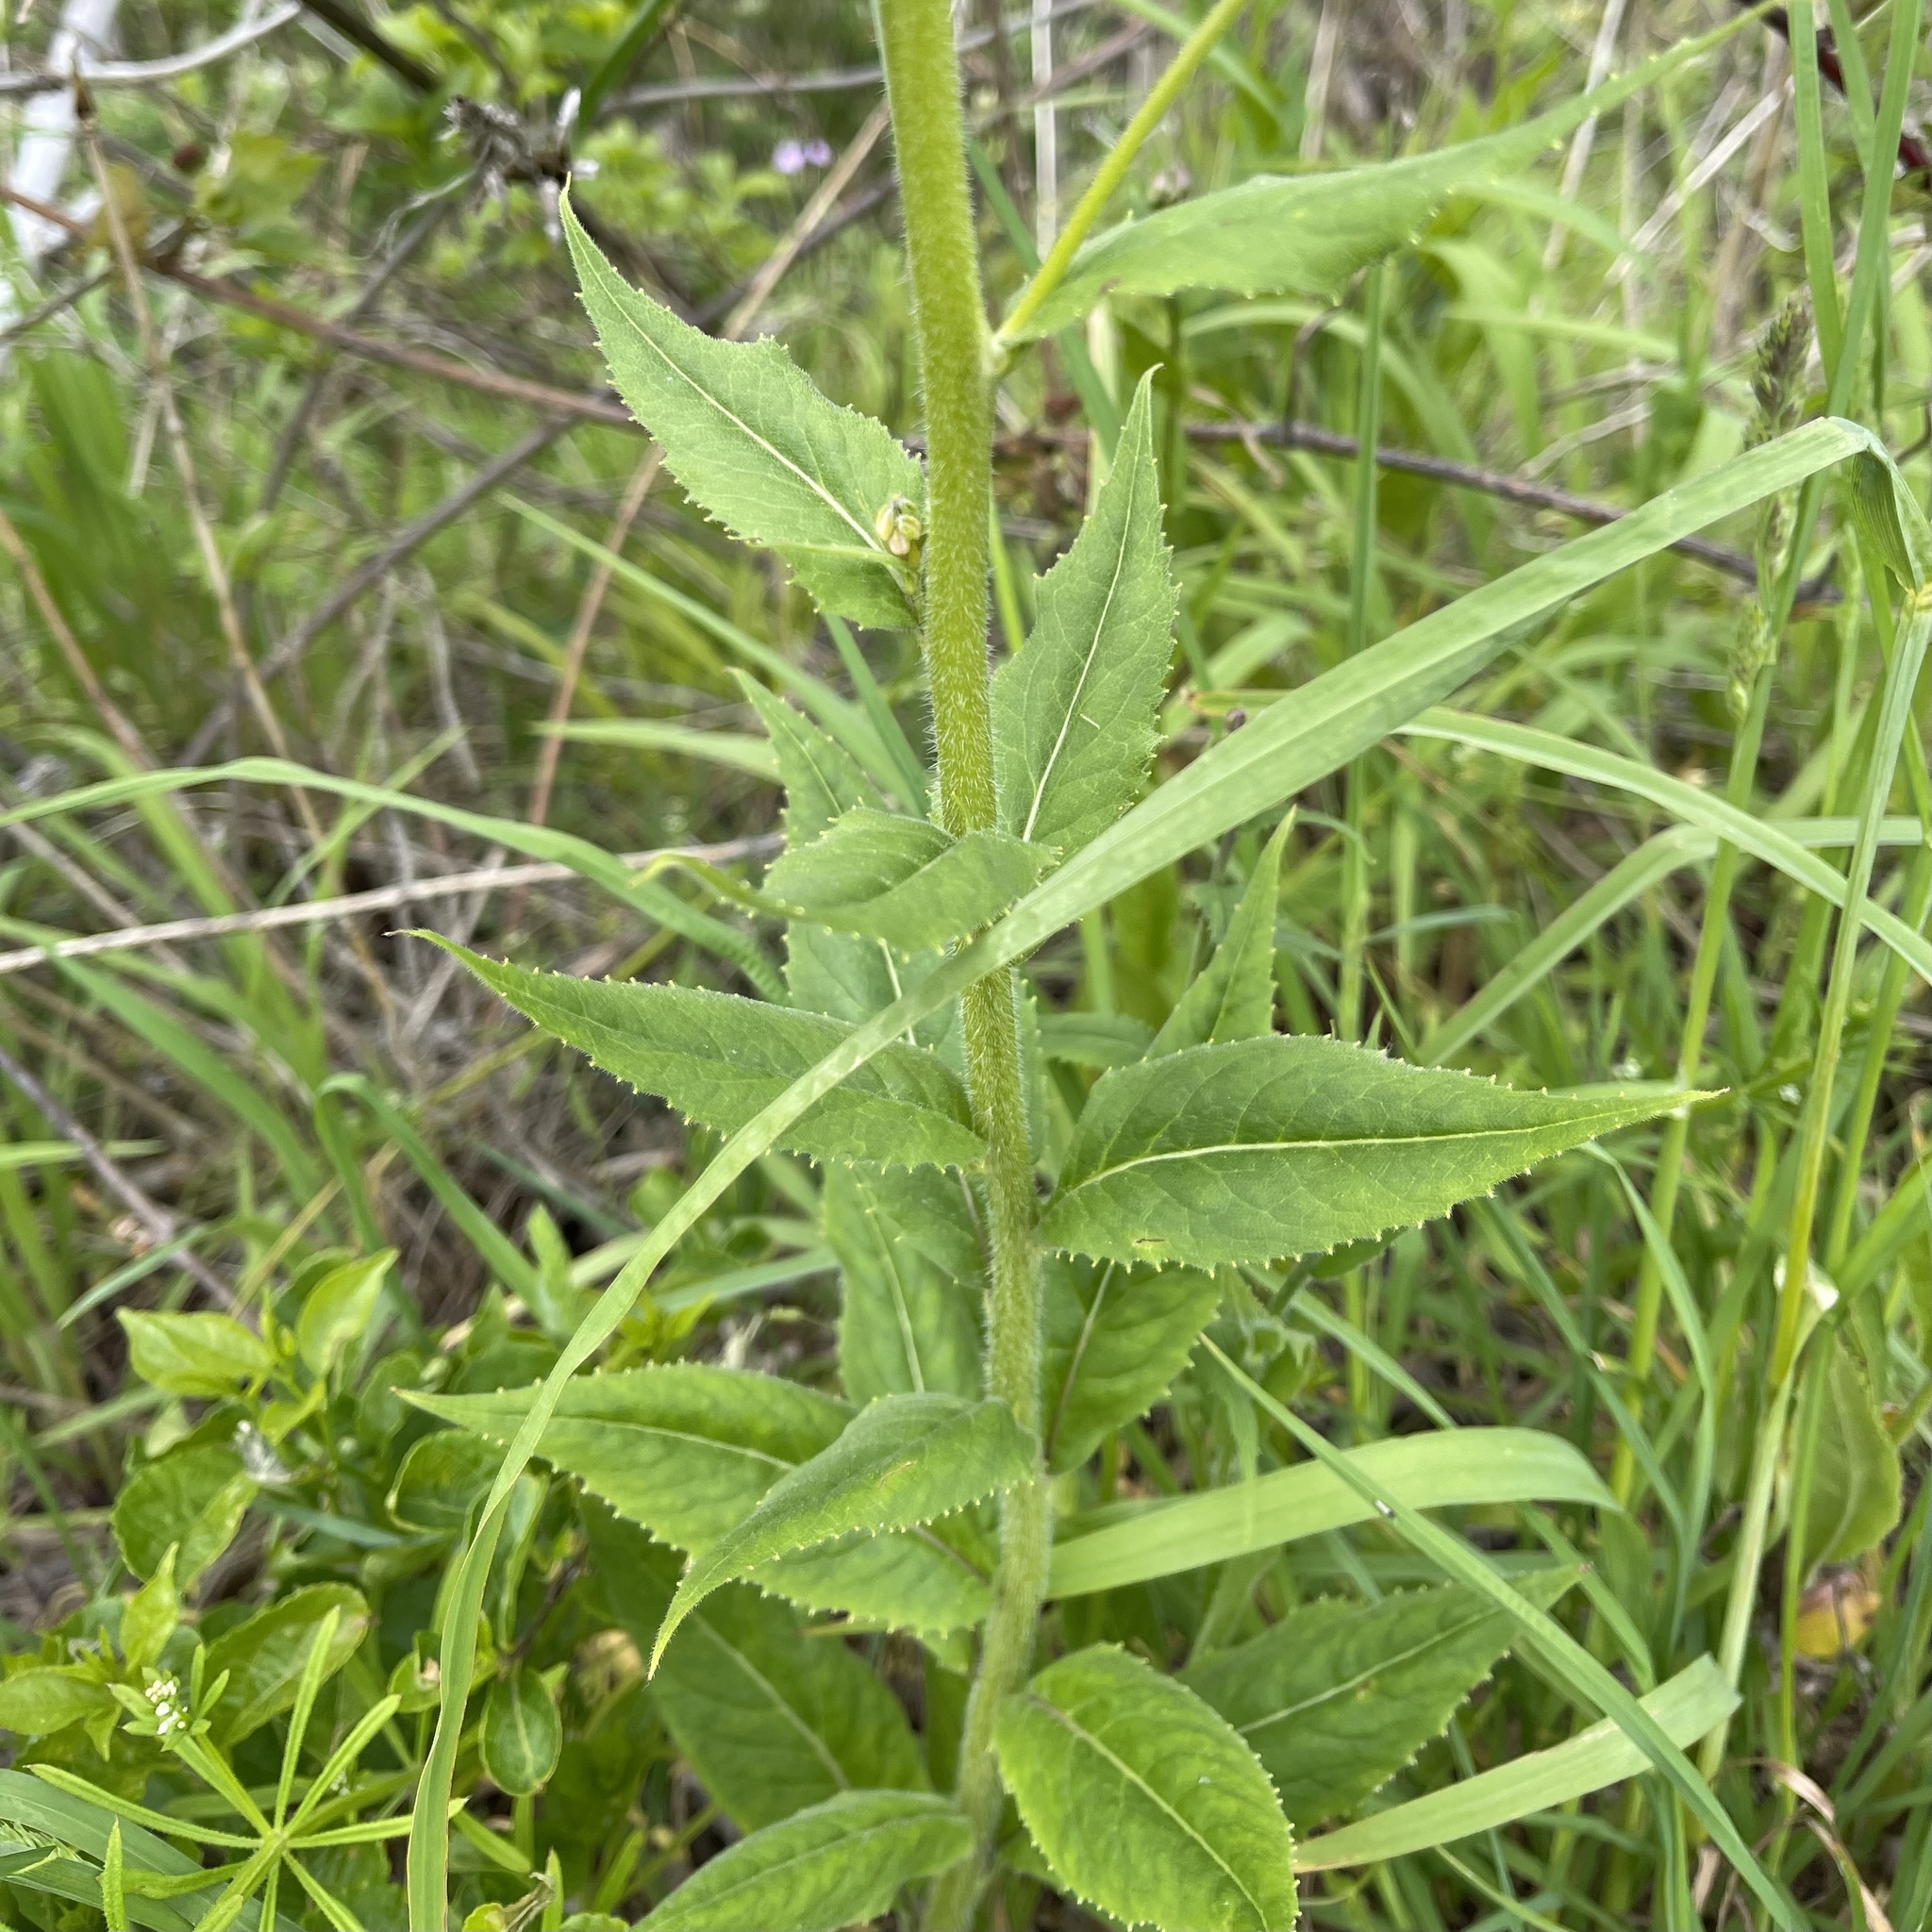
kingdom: Plantae
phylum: Tracheophyta
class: Magnoliopsida
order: Brassicales
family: Brassicaceae
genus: Hesperis
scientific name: Hesperis matronalis
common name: Dame's-violet
